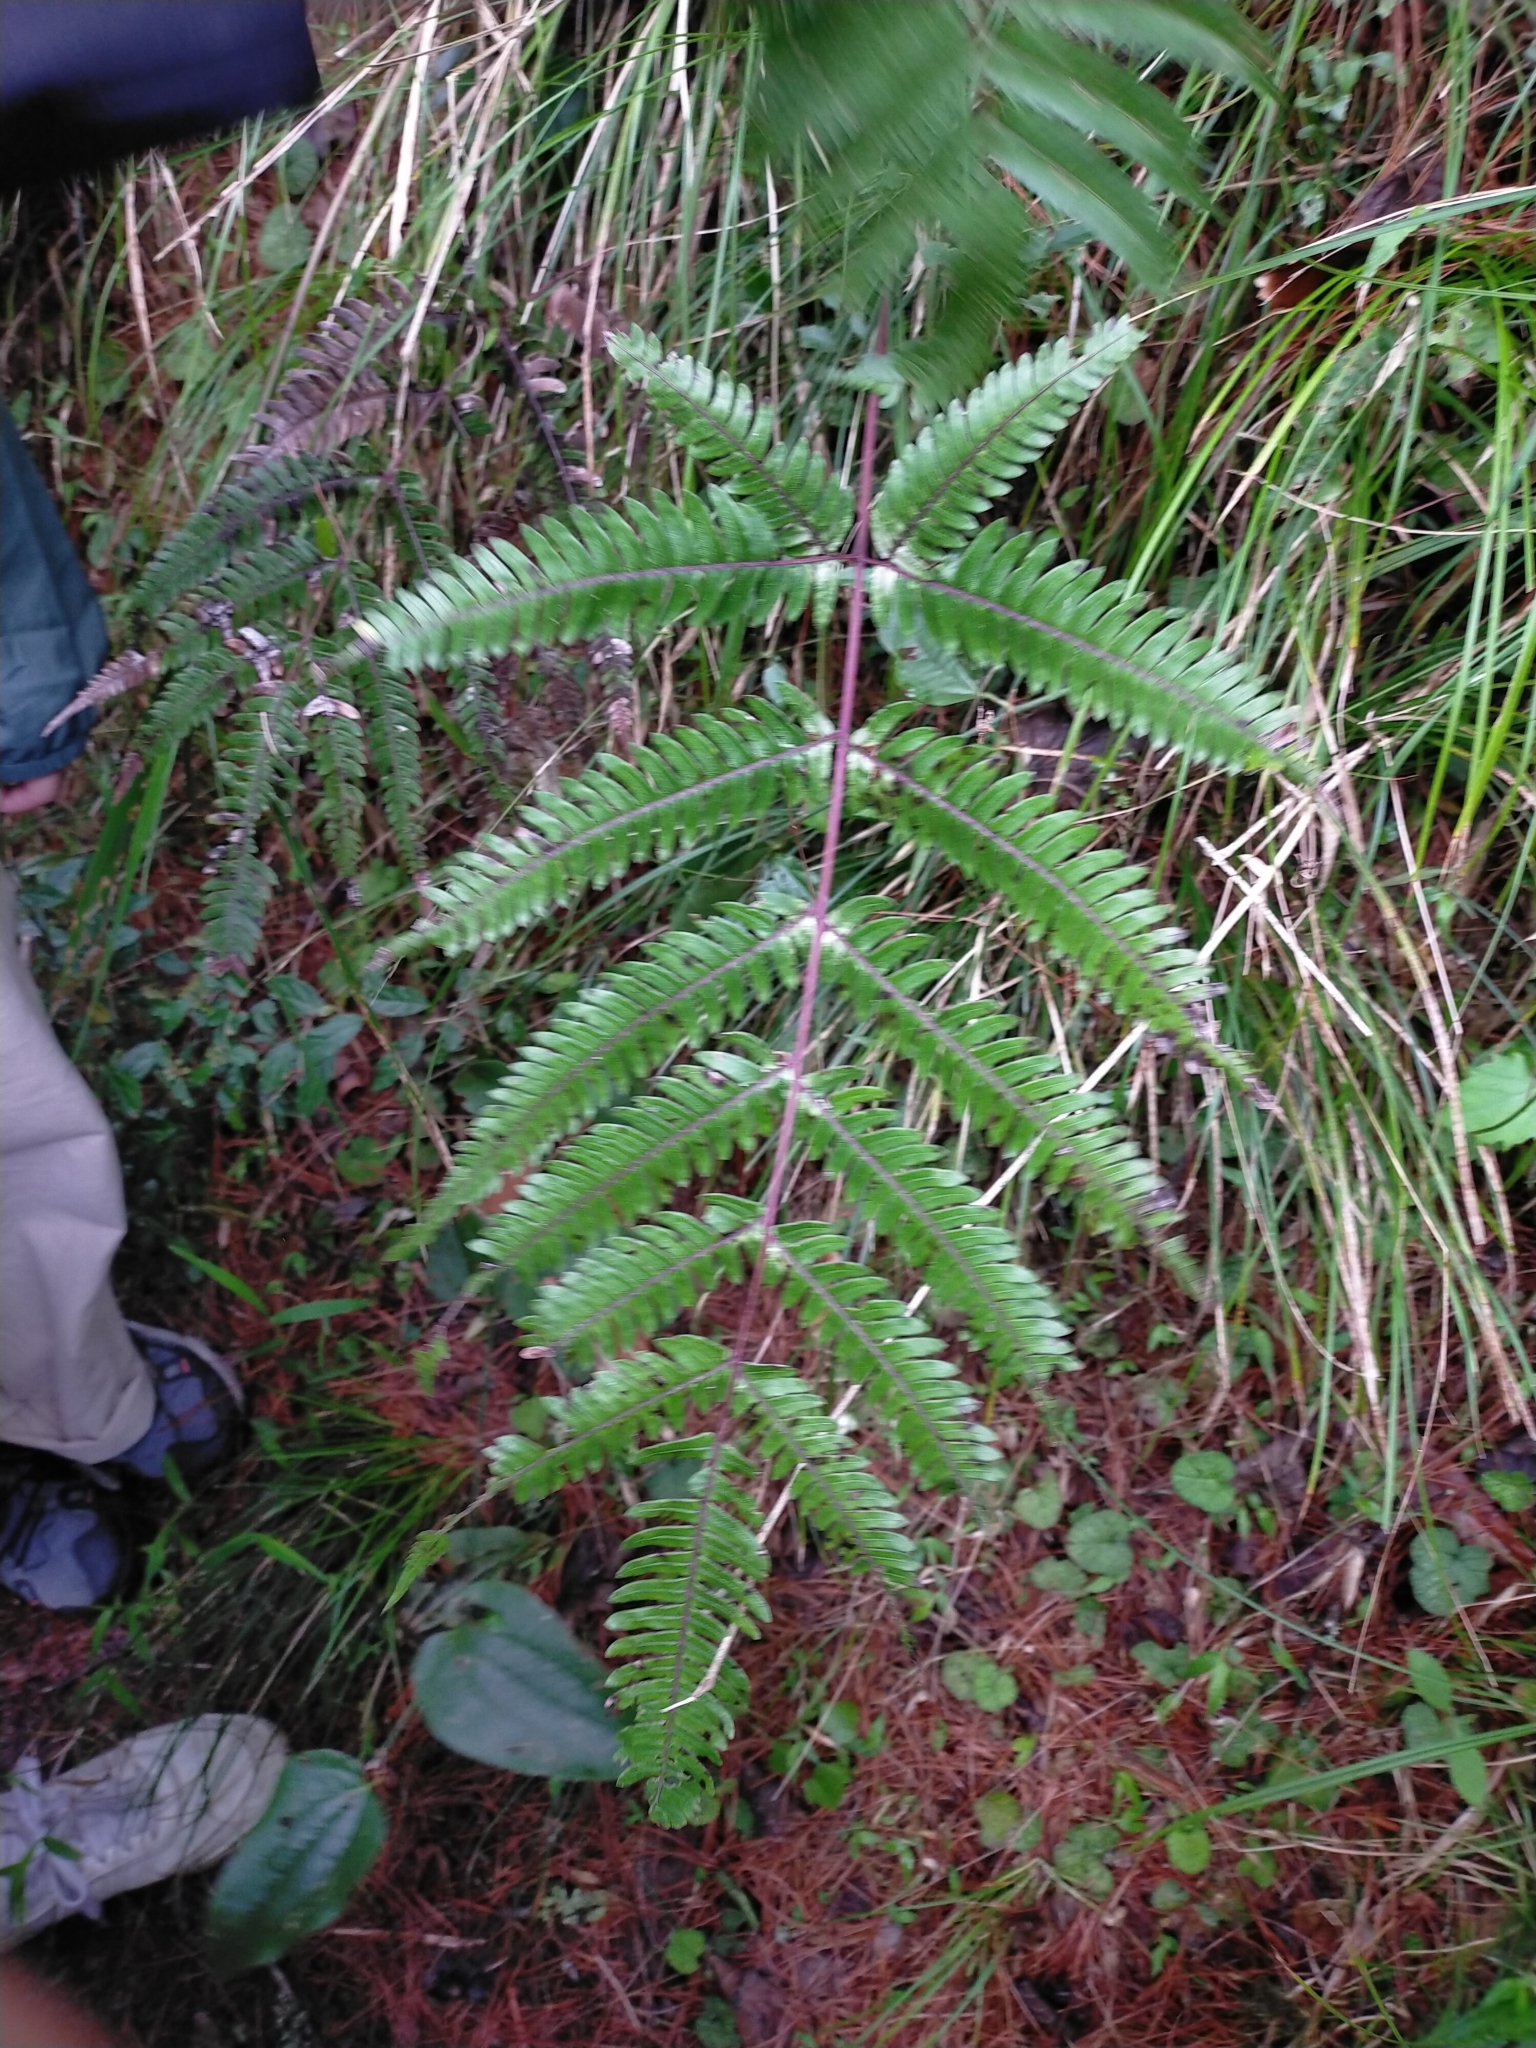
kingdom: Plantae
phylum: Tracheophyta
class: Polypodiopsida
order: Polypodiales
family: Pteridaceae
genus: Pteris
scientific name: Pteris normalis
